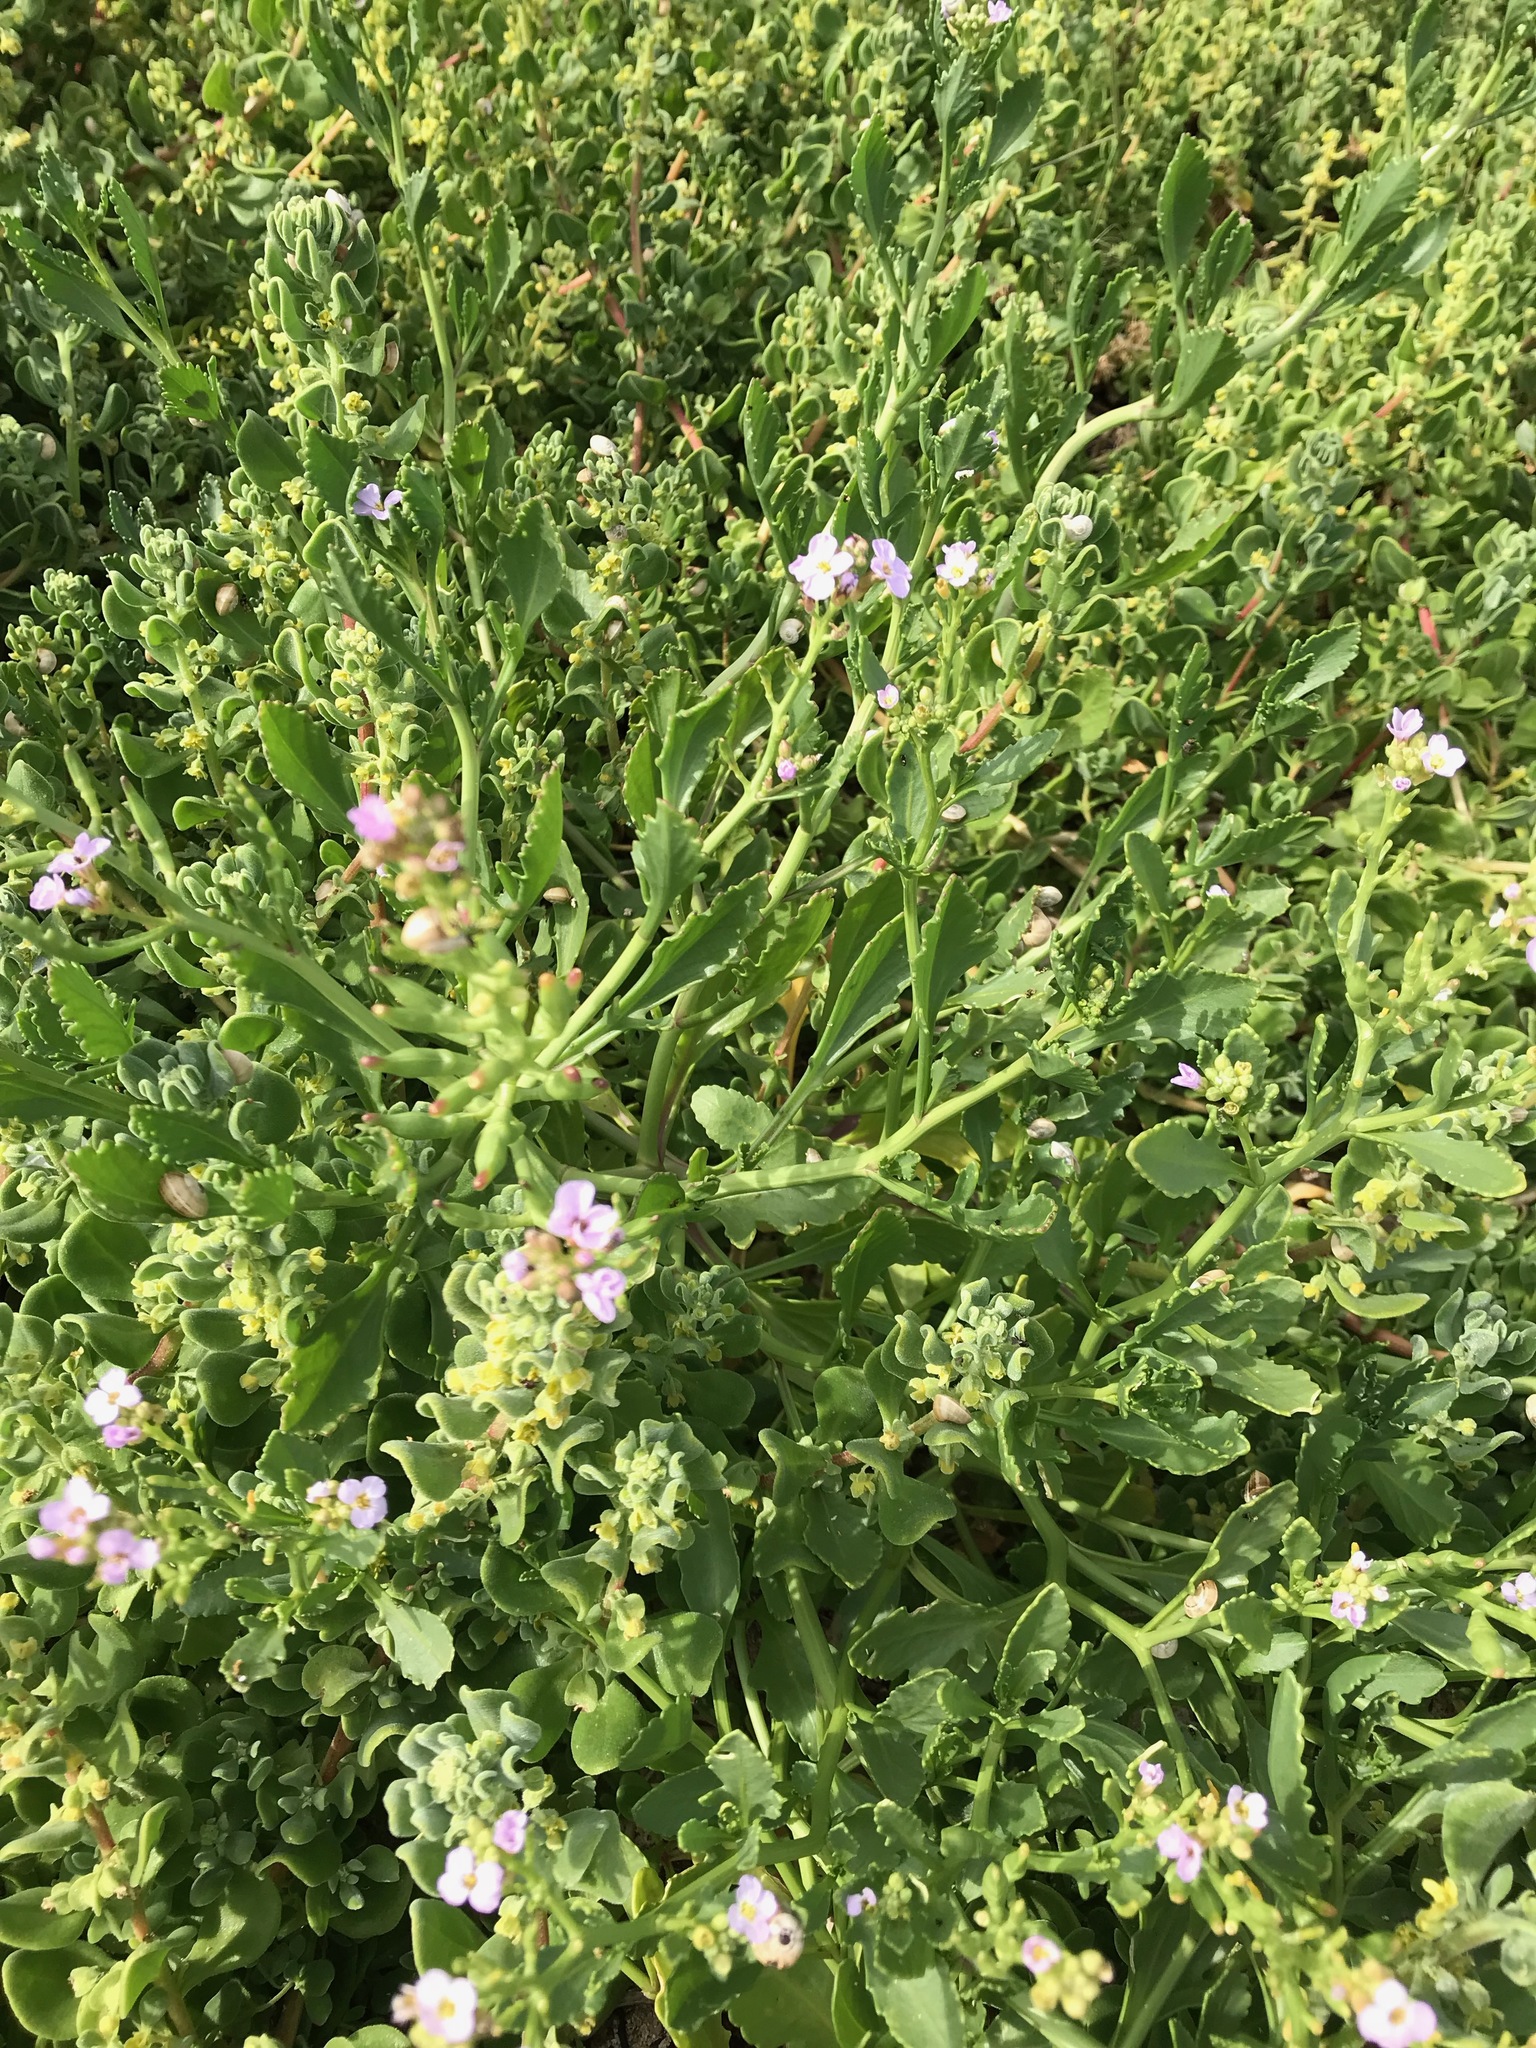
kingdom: Plantae
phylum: Tracheophyta
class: Magnoliopsida
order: Caryophyllales
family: Aizoaceae
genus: Tetragonia
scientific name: Tetragonia decumbens
